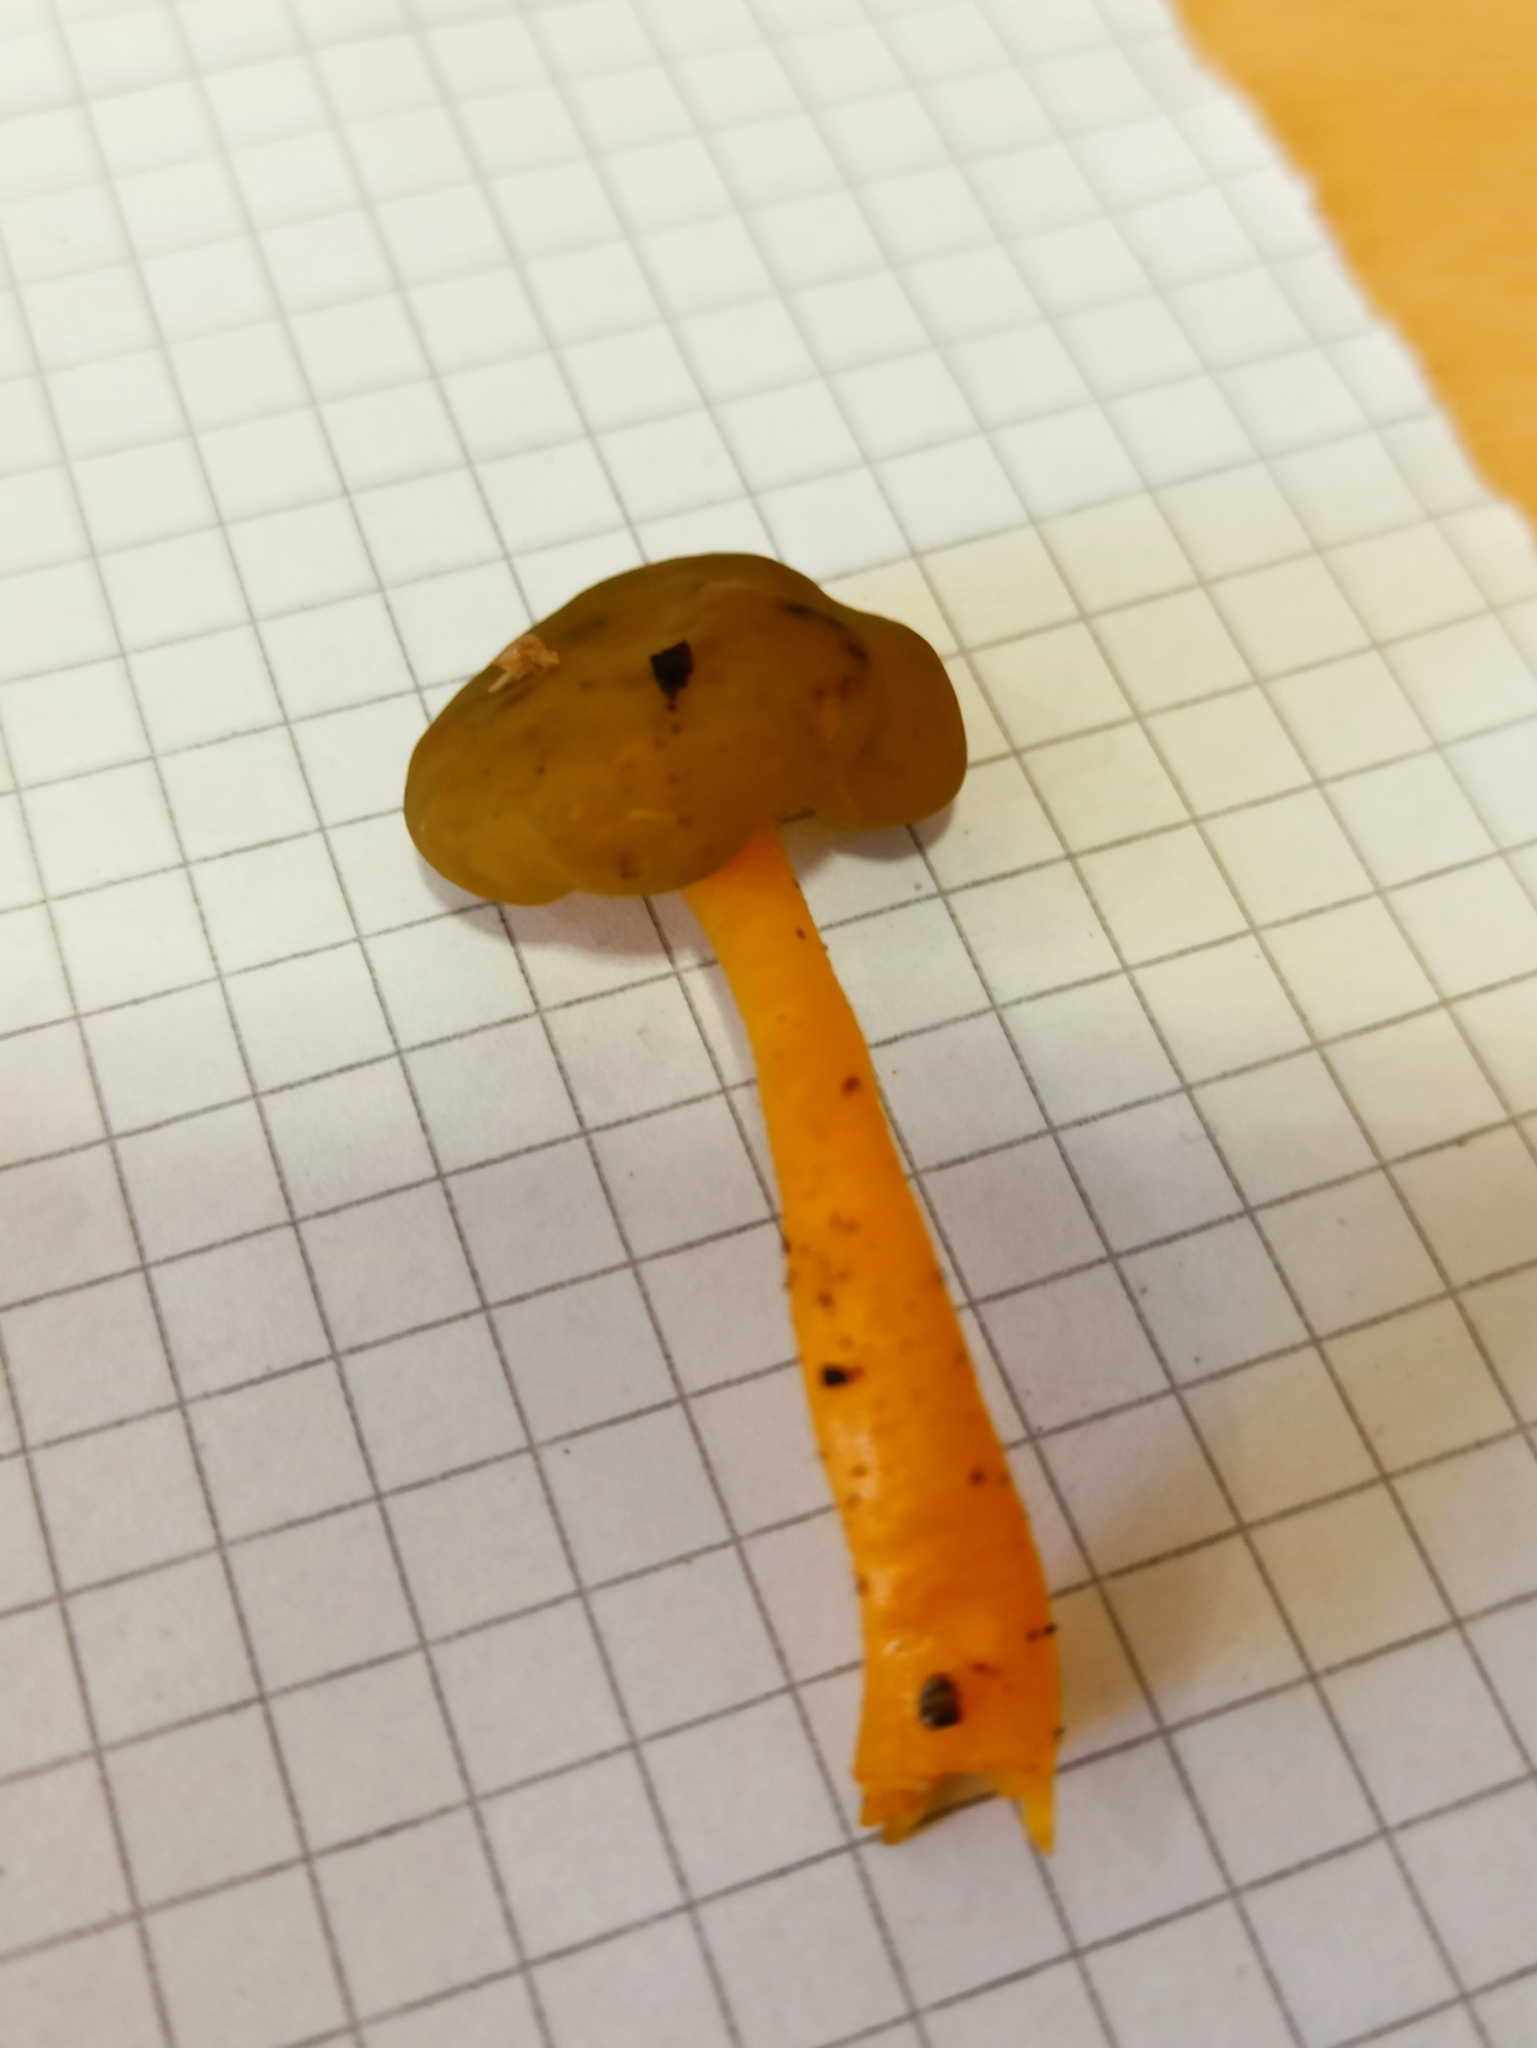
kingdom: Fungi
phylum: Ascomycota
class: Leotiomycetes
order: Leotiales
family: Leotiaceae
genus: Leotia
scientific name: Leotia lubrica
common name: Jellybaby
